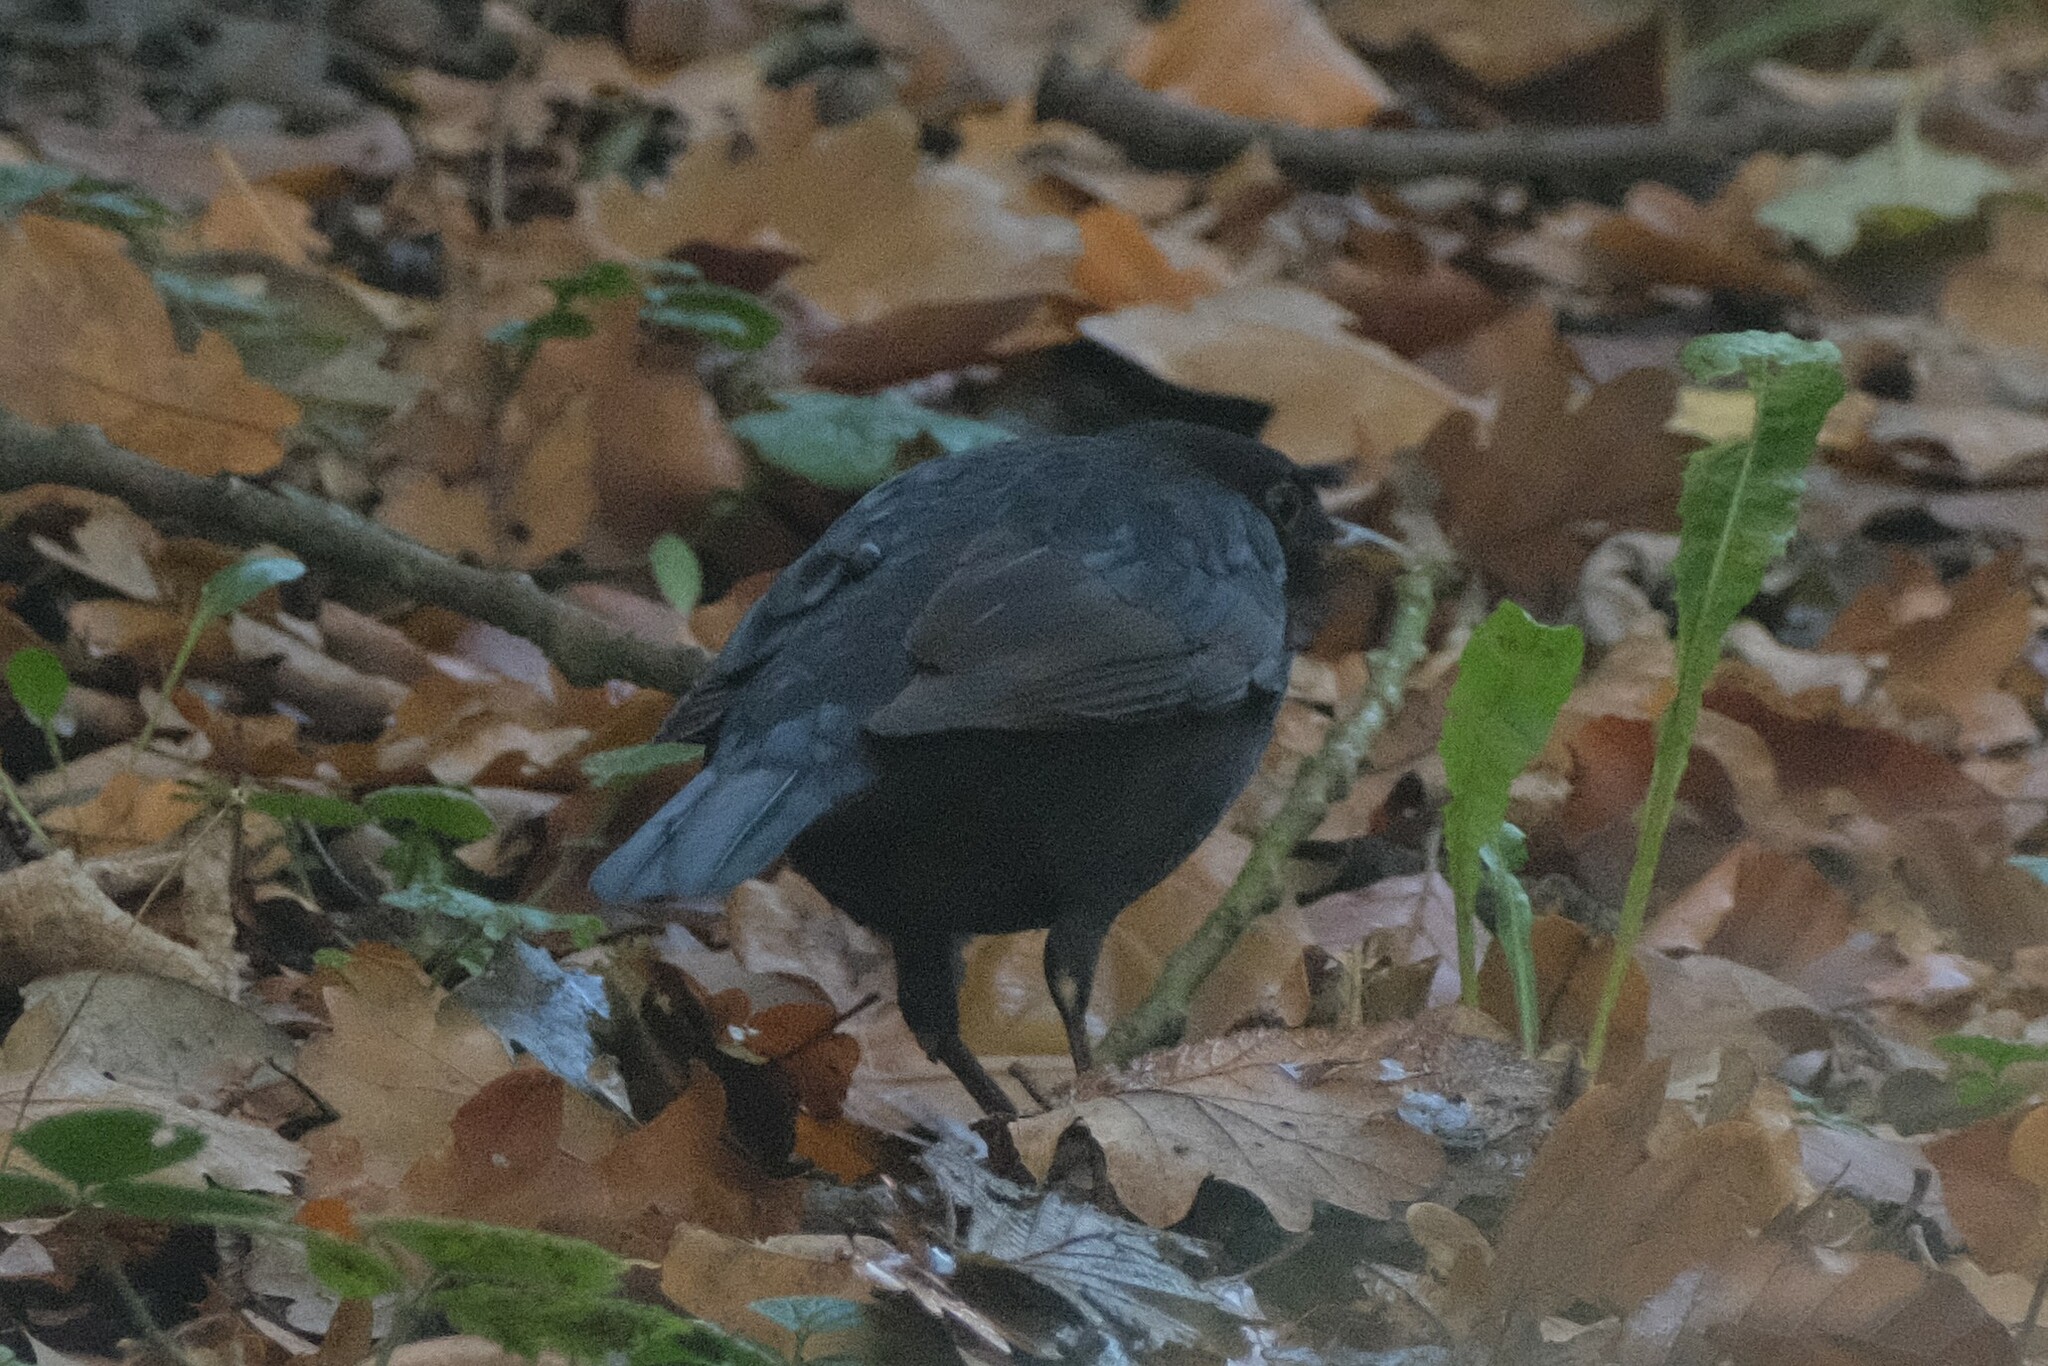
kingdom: Animalia
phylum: Chordata
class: Aves
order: Passeriformes
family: Turdidae
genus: Turdus
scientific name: Turdus merula
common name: Common blackbird
